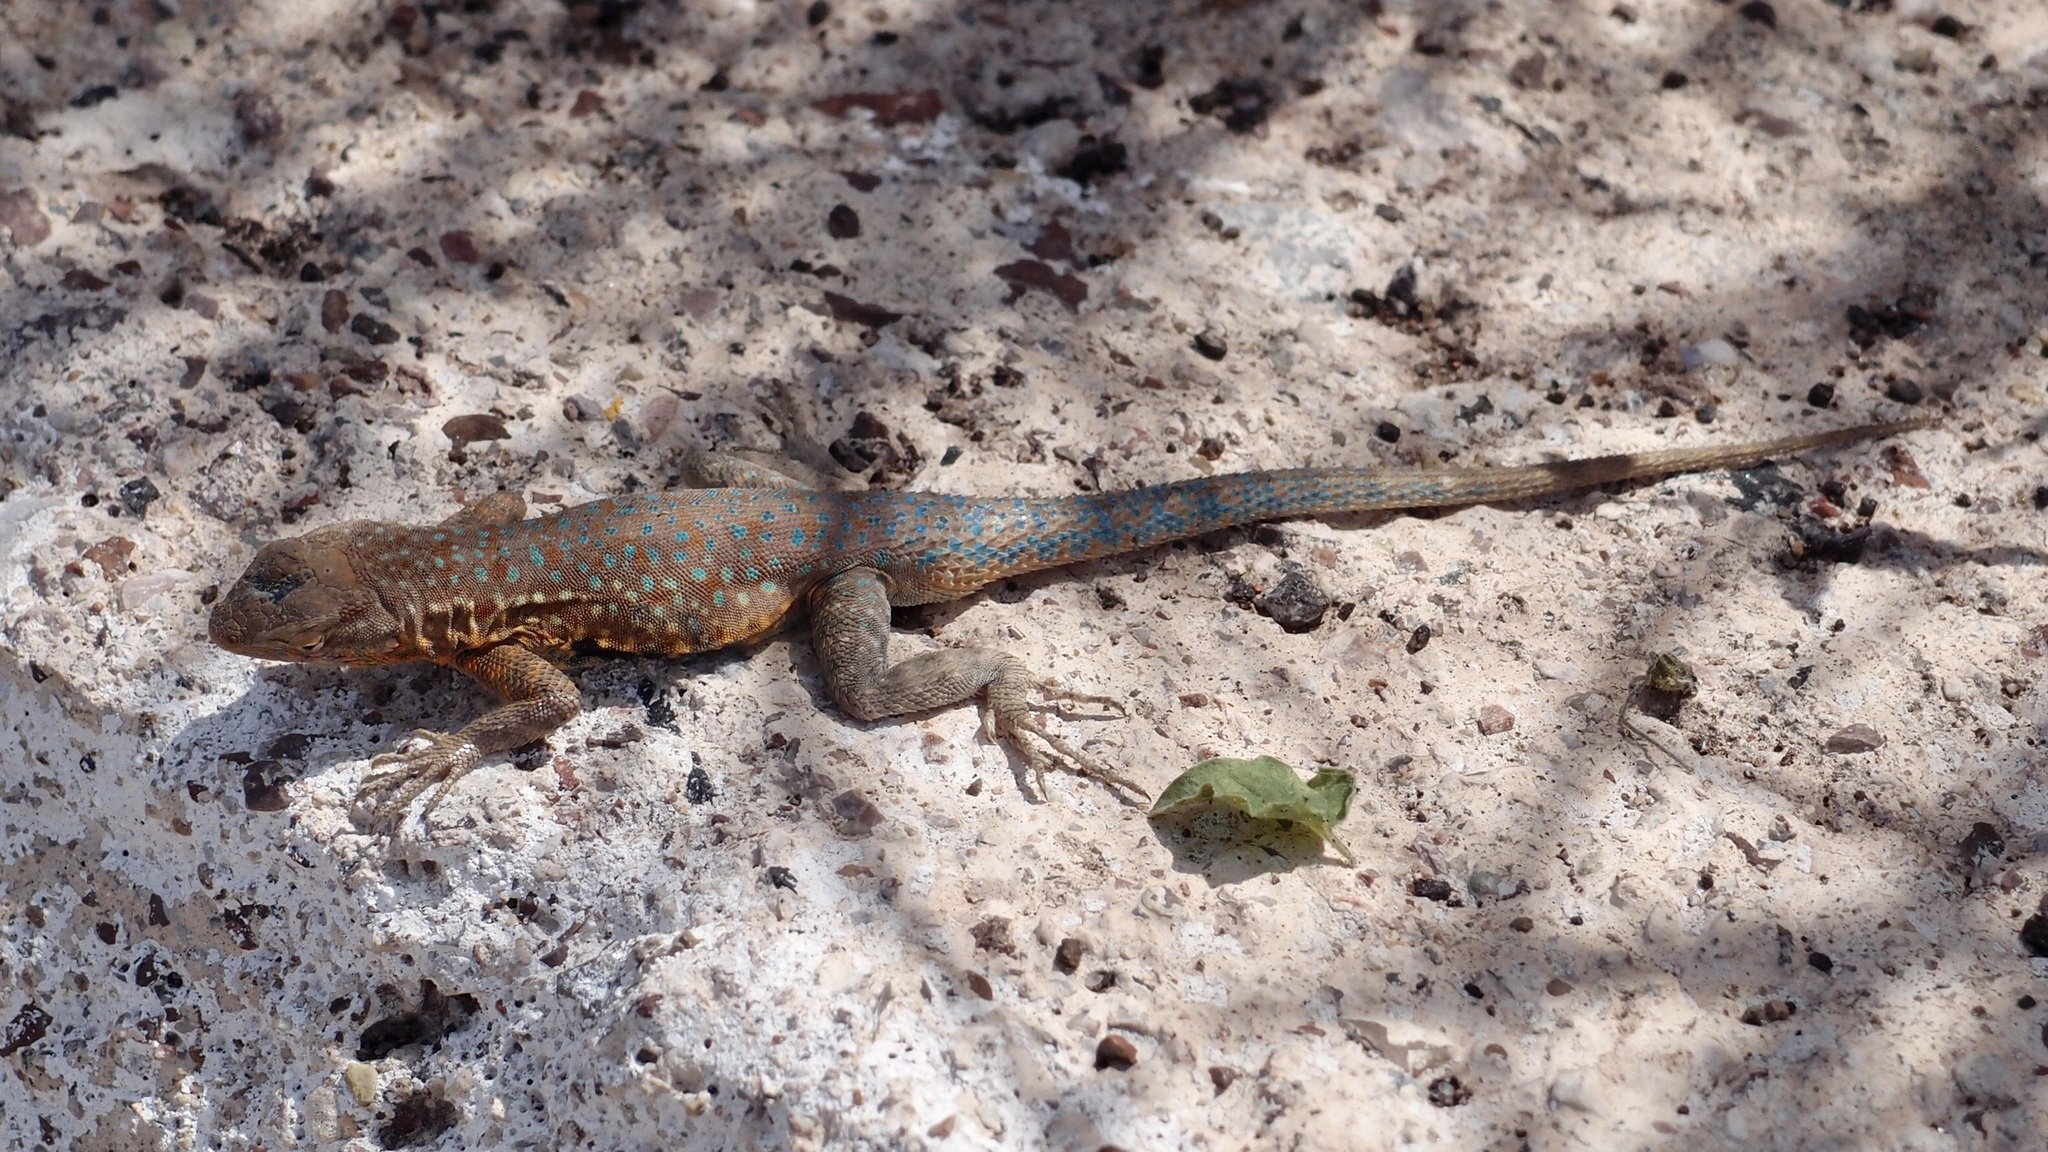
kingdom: Animalia
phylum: Chordata
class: Squamata
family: Phrynosomatidae
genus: Uta
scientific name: Uta stansburiana
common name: Side-blotched lizard
